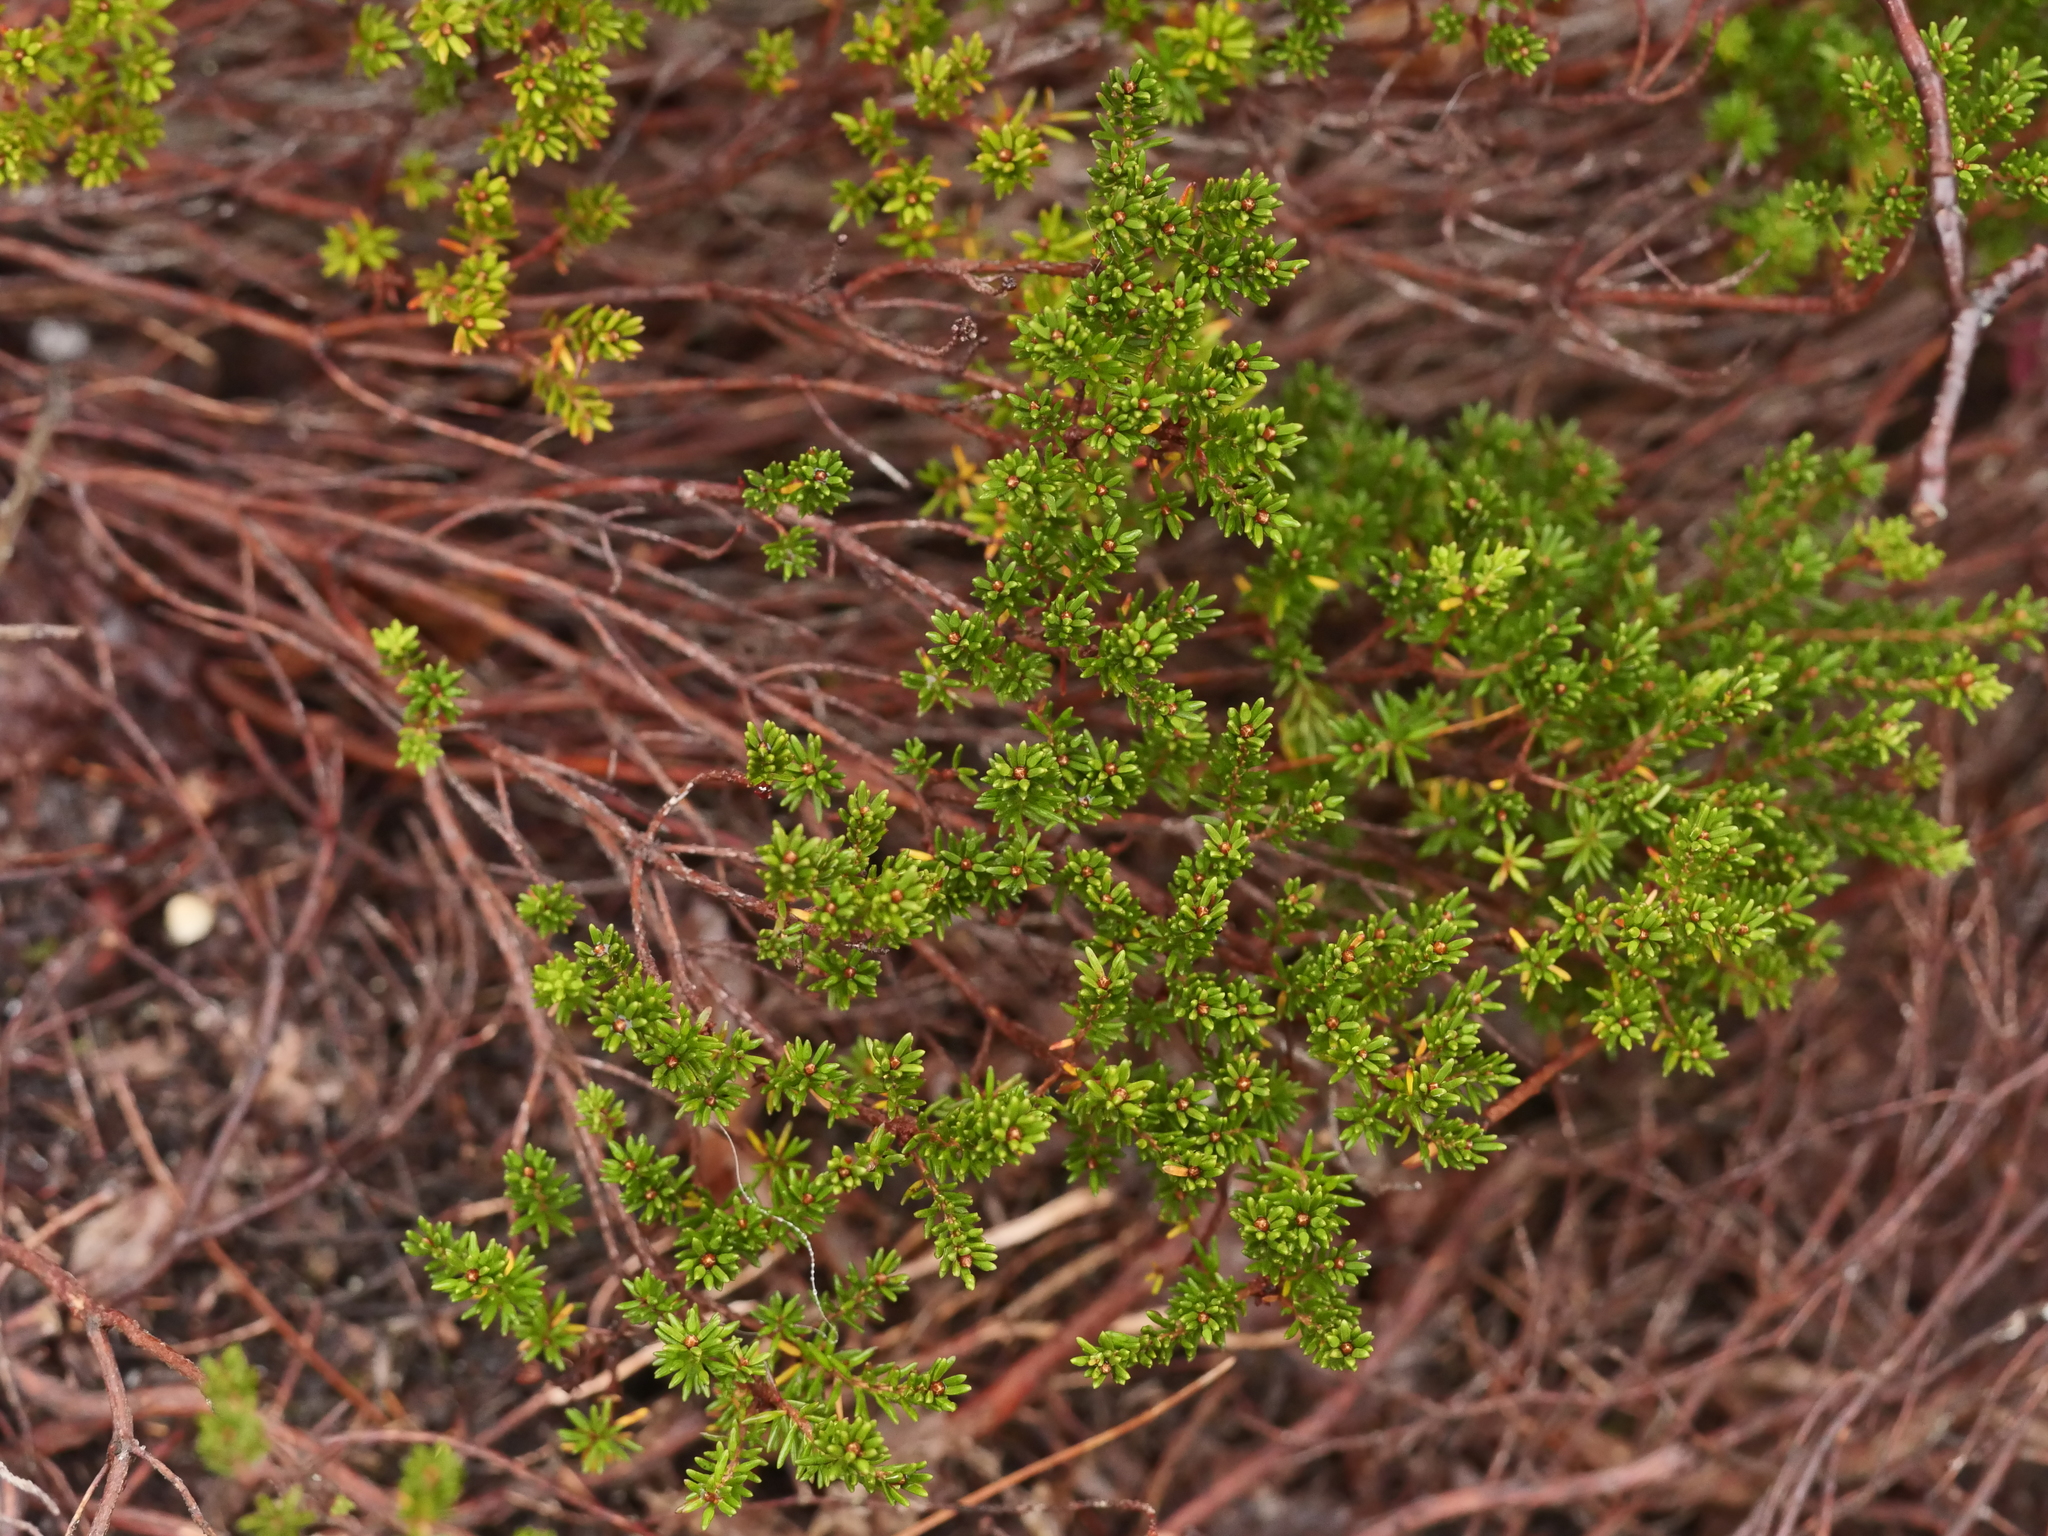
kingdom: Plantae
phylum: Tracheophyta
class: Magnoliopsida
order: Ericales
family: Ericaceae
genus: Corema
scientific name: Corema conradii
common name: Broom-crowberry
